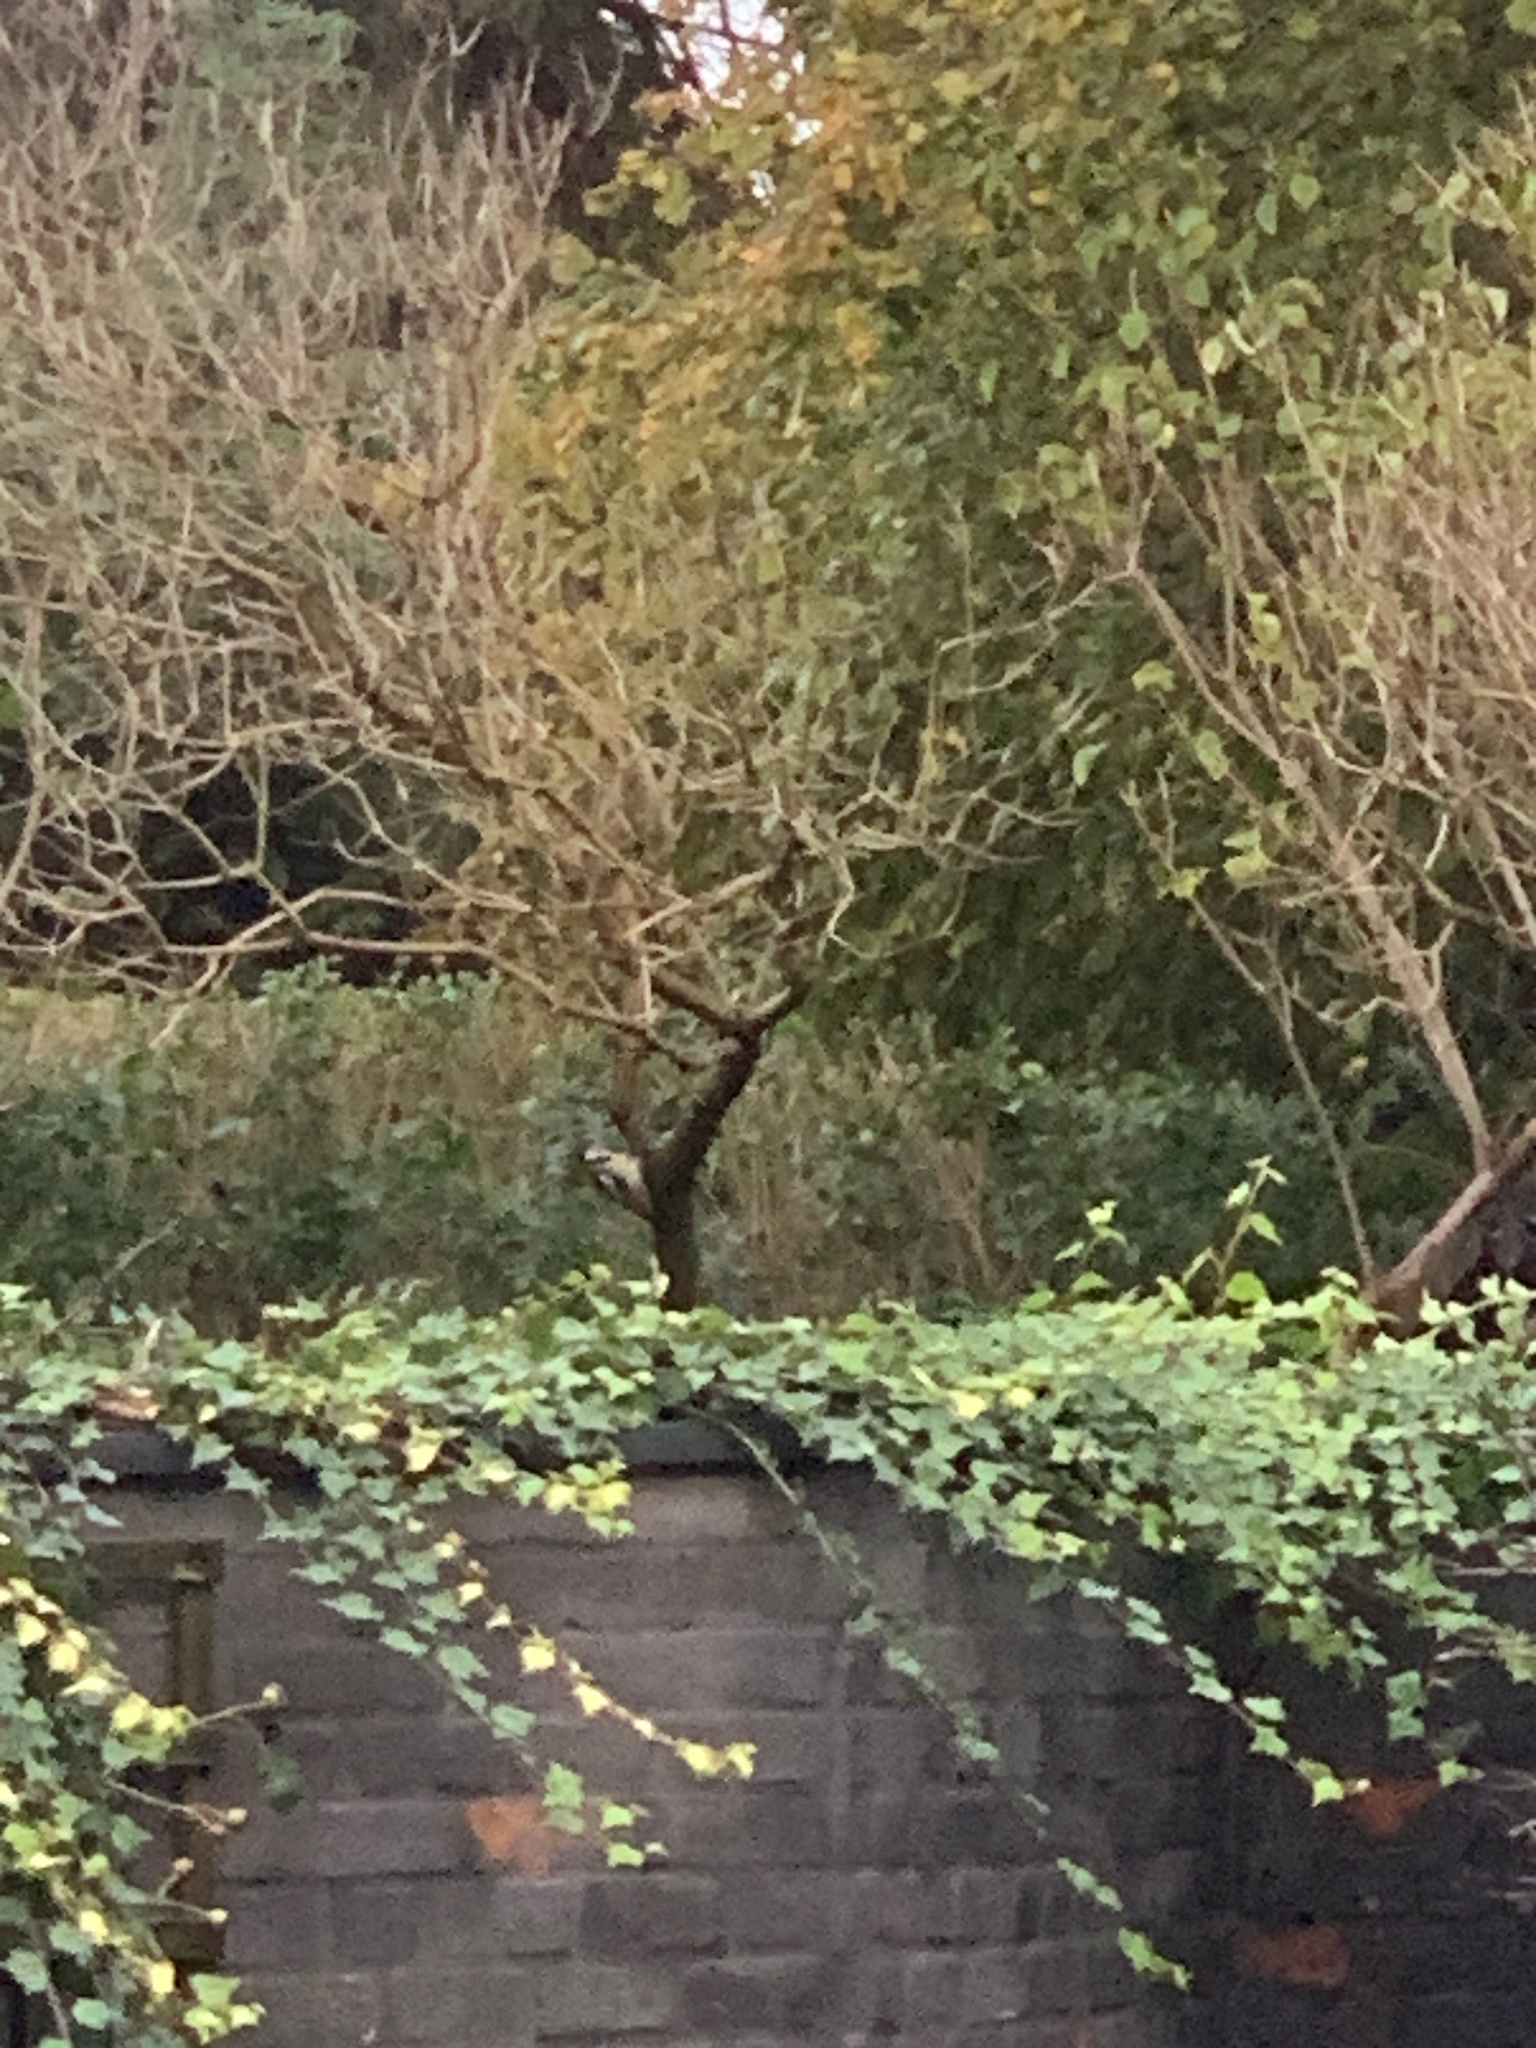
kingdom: Animalia
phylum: Chordata
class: Aves
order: Piciformes
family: Picidae
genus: Dendrocopos
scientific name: Dendrocopos major
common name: Great spotted woodpecker
